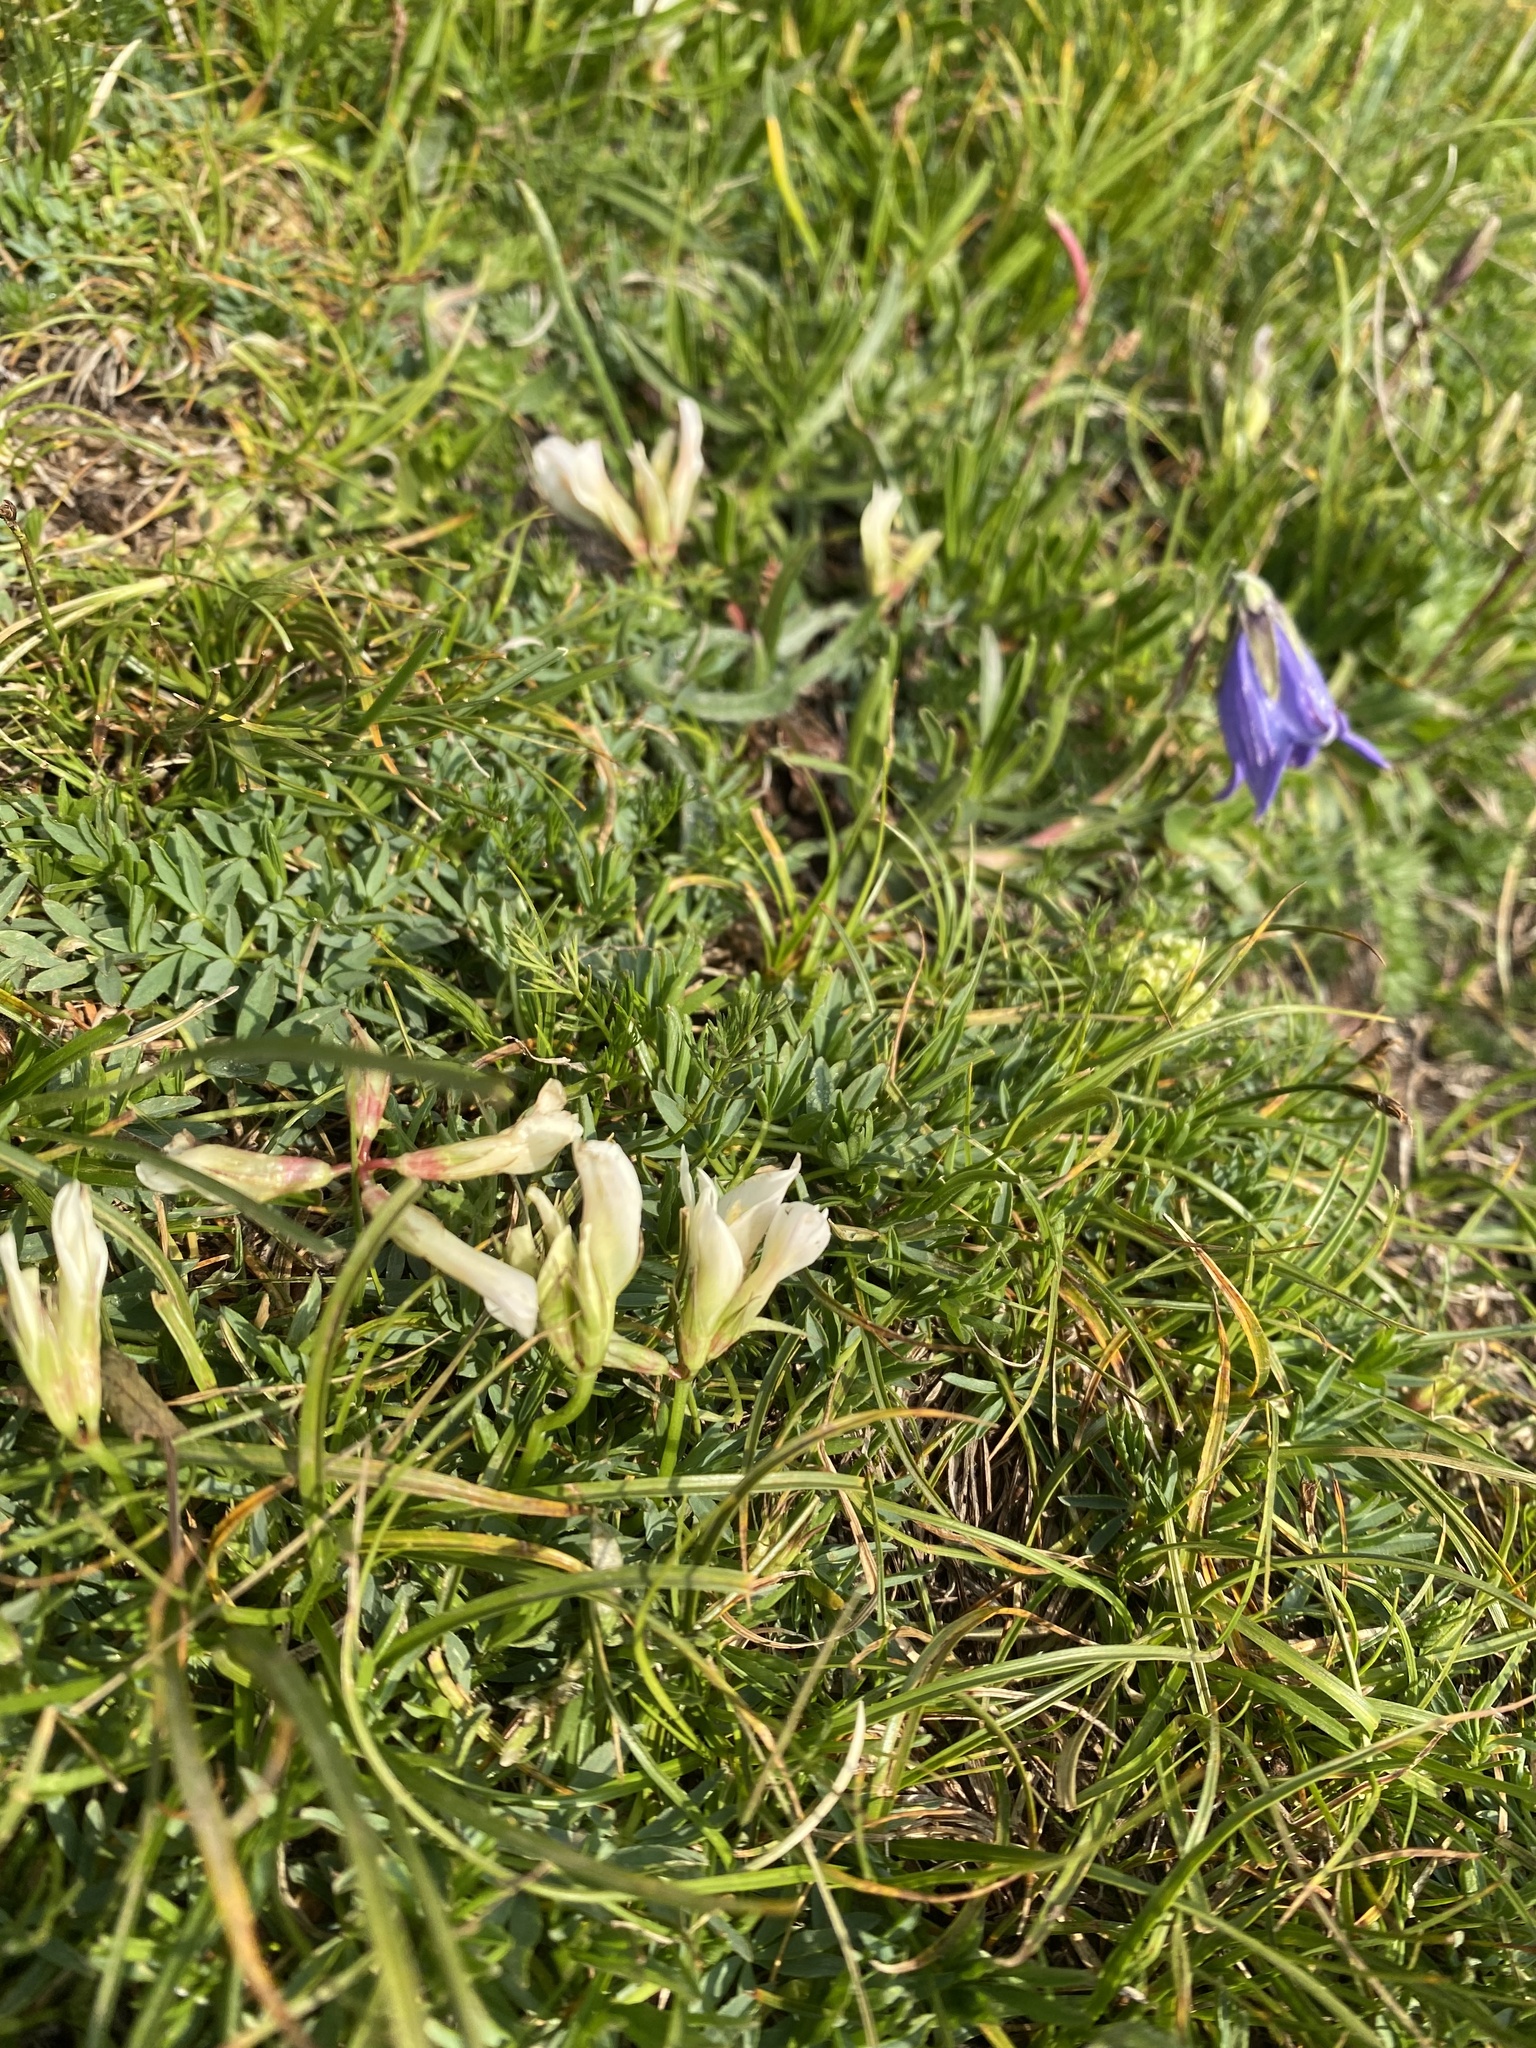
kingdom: Plantae
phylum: Tracheophyta
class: Magnoliopsida
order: Fabales
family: Fabaceae
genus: Trifolium
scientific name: Trifolium polyphyllum
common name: Many-leaf clover
